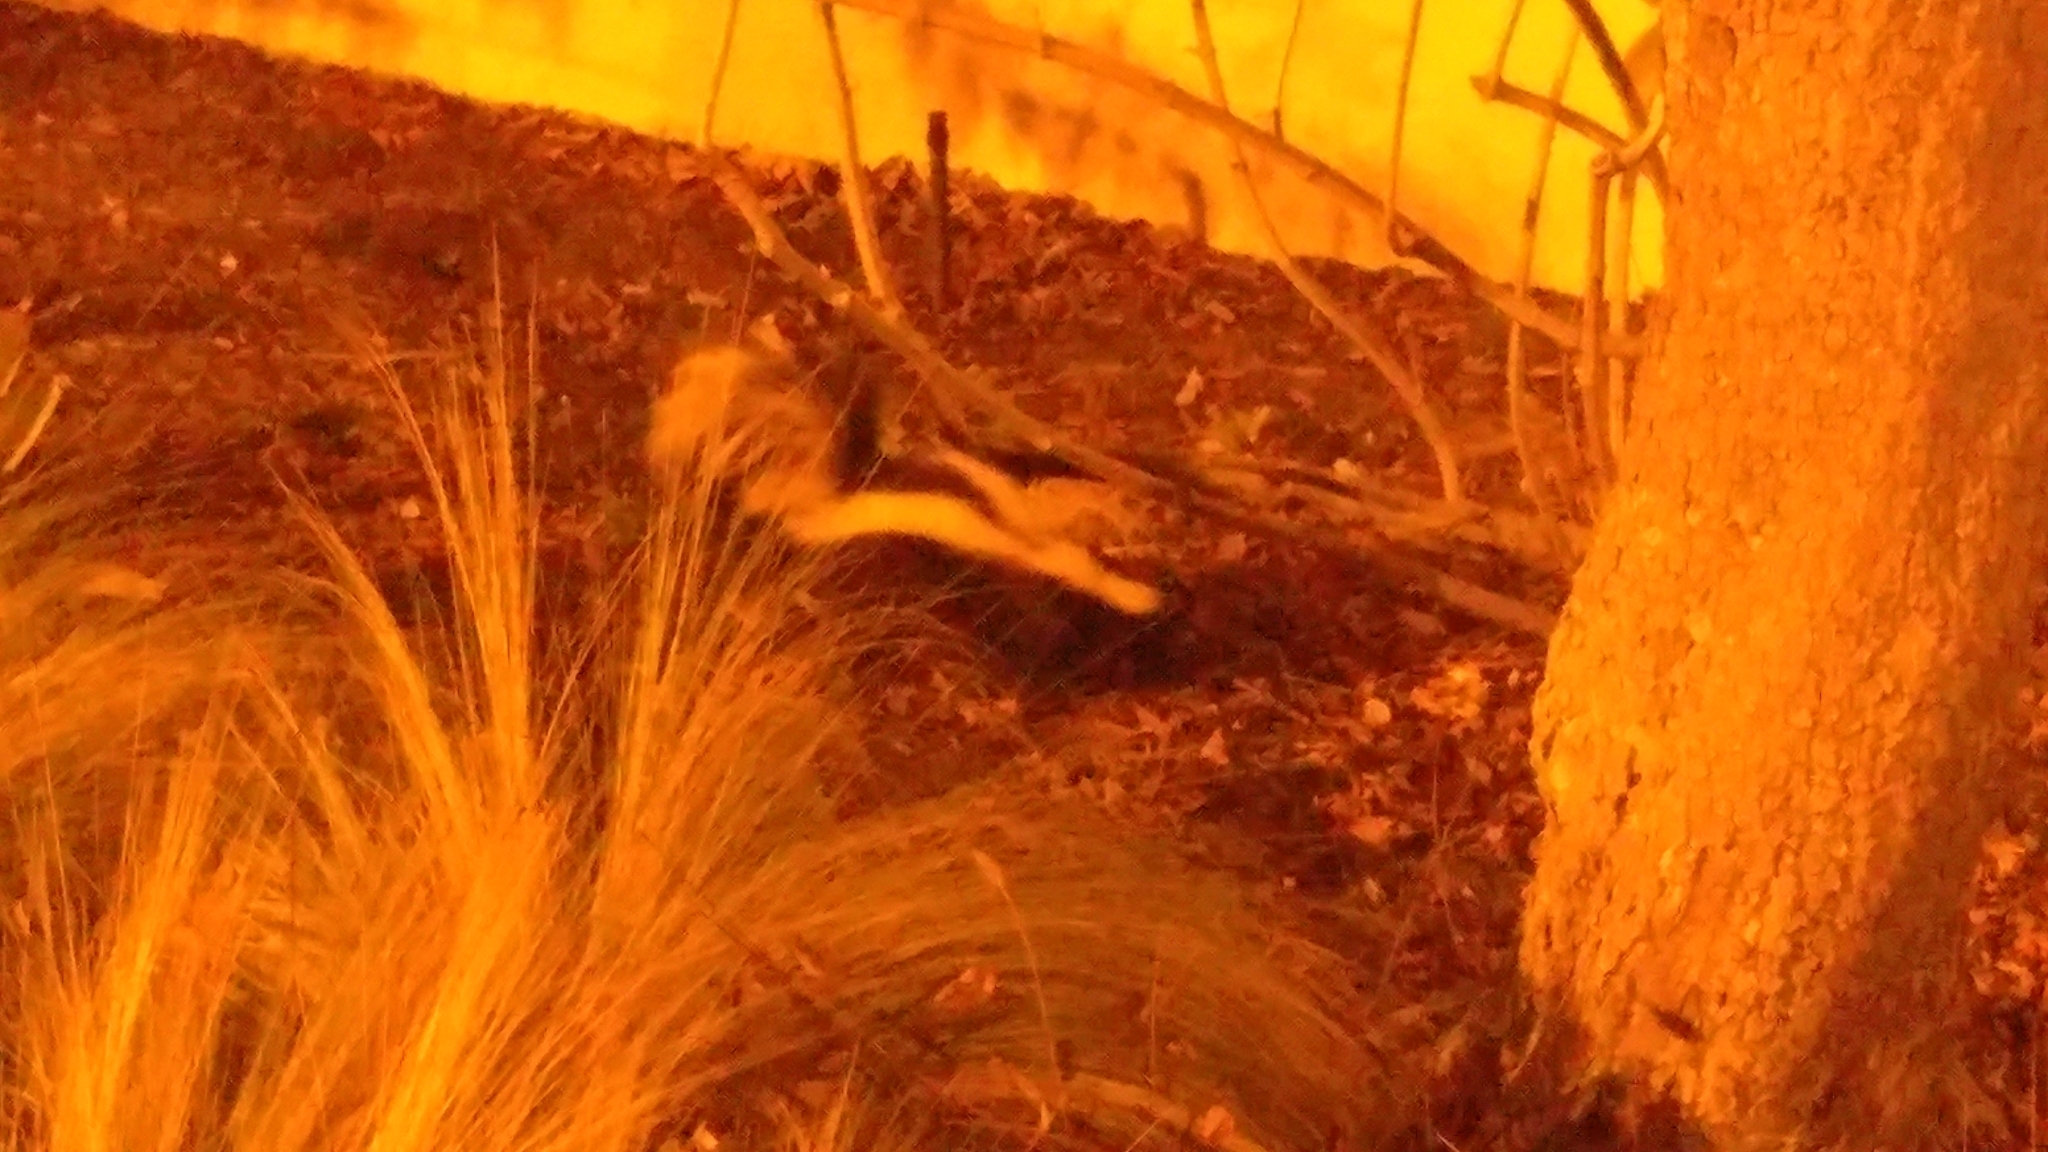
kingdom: Animalia
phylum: Chordata
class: Mammalia
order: Carnivora
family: Mephitidae
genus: Mephitis
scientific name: Mephitis mephitis
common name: Striped skunk
